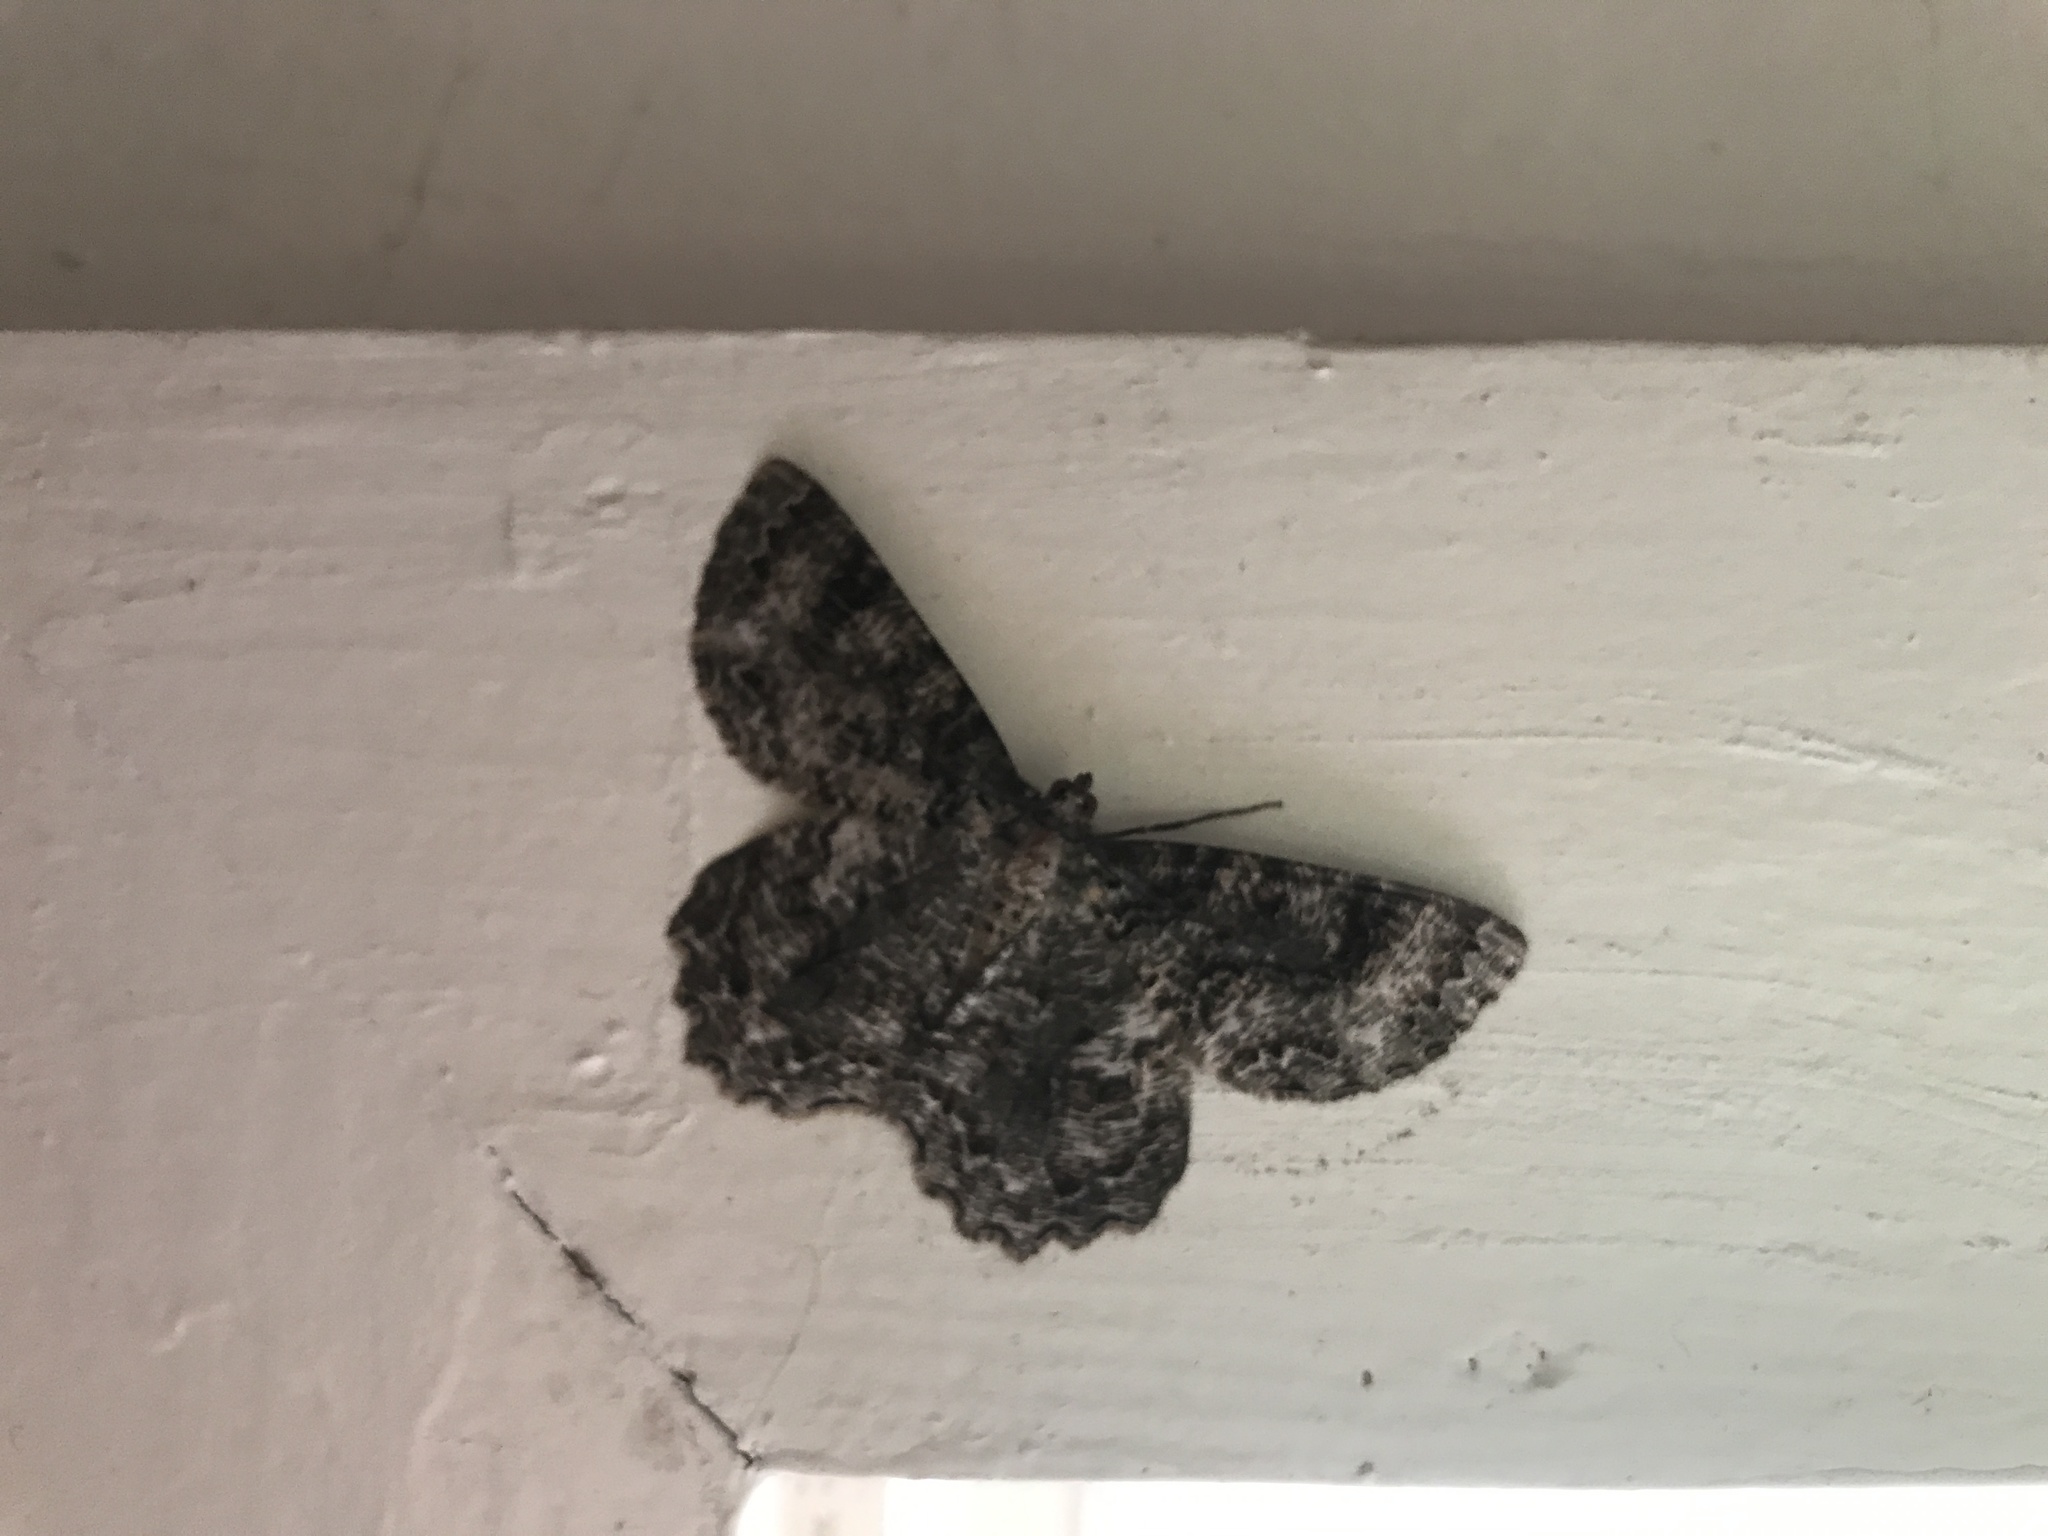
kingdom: Animalia
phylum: Arthropoda
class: Insecta
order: Lepidoptera
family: Geometridae
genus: Epimecis
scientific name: Epimecis hortaria
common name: Tulip-tree beauty
